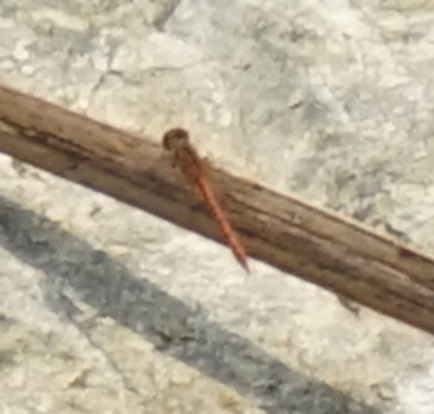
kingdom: Animalia
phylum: Arthropoda
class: Insecta
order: Odonata
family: Libellulidae
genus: Diplacodes
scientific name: Diplacodes bipunctata
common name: Red percher dragonfly
